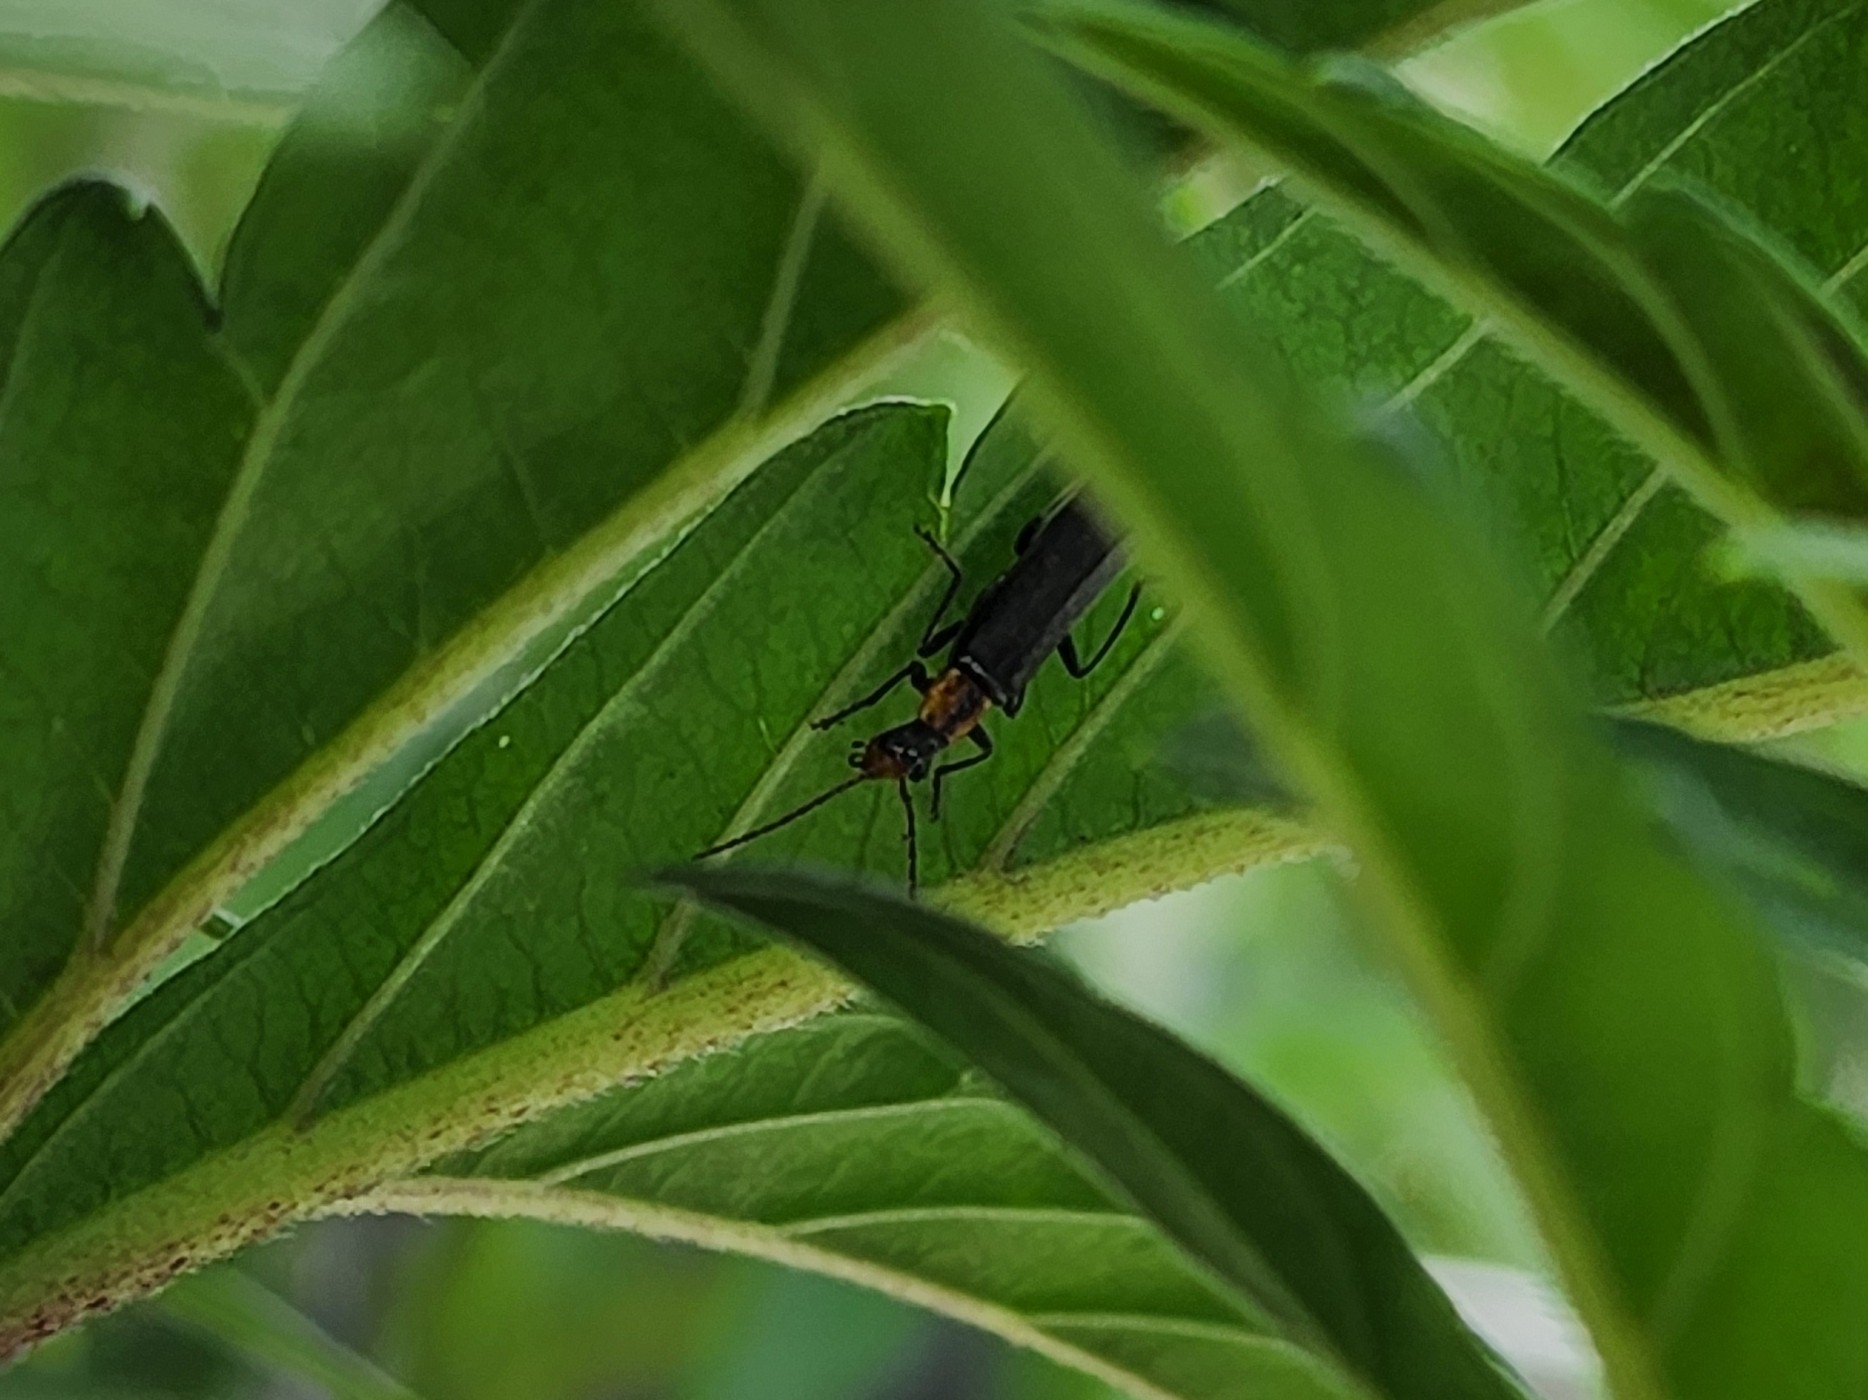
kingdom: Animalia
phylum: Arthropoda
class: Insecta
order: Coleoptera
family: Cantharidae
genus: Dichelotarsus
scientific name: Dichelotarsus cavicollis
